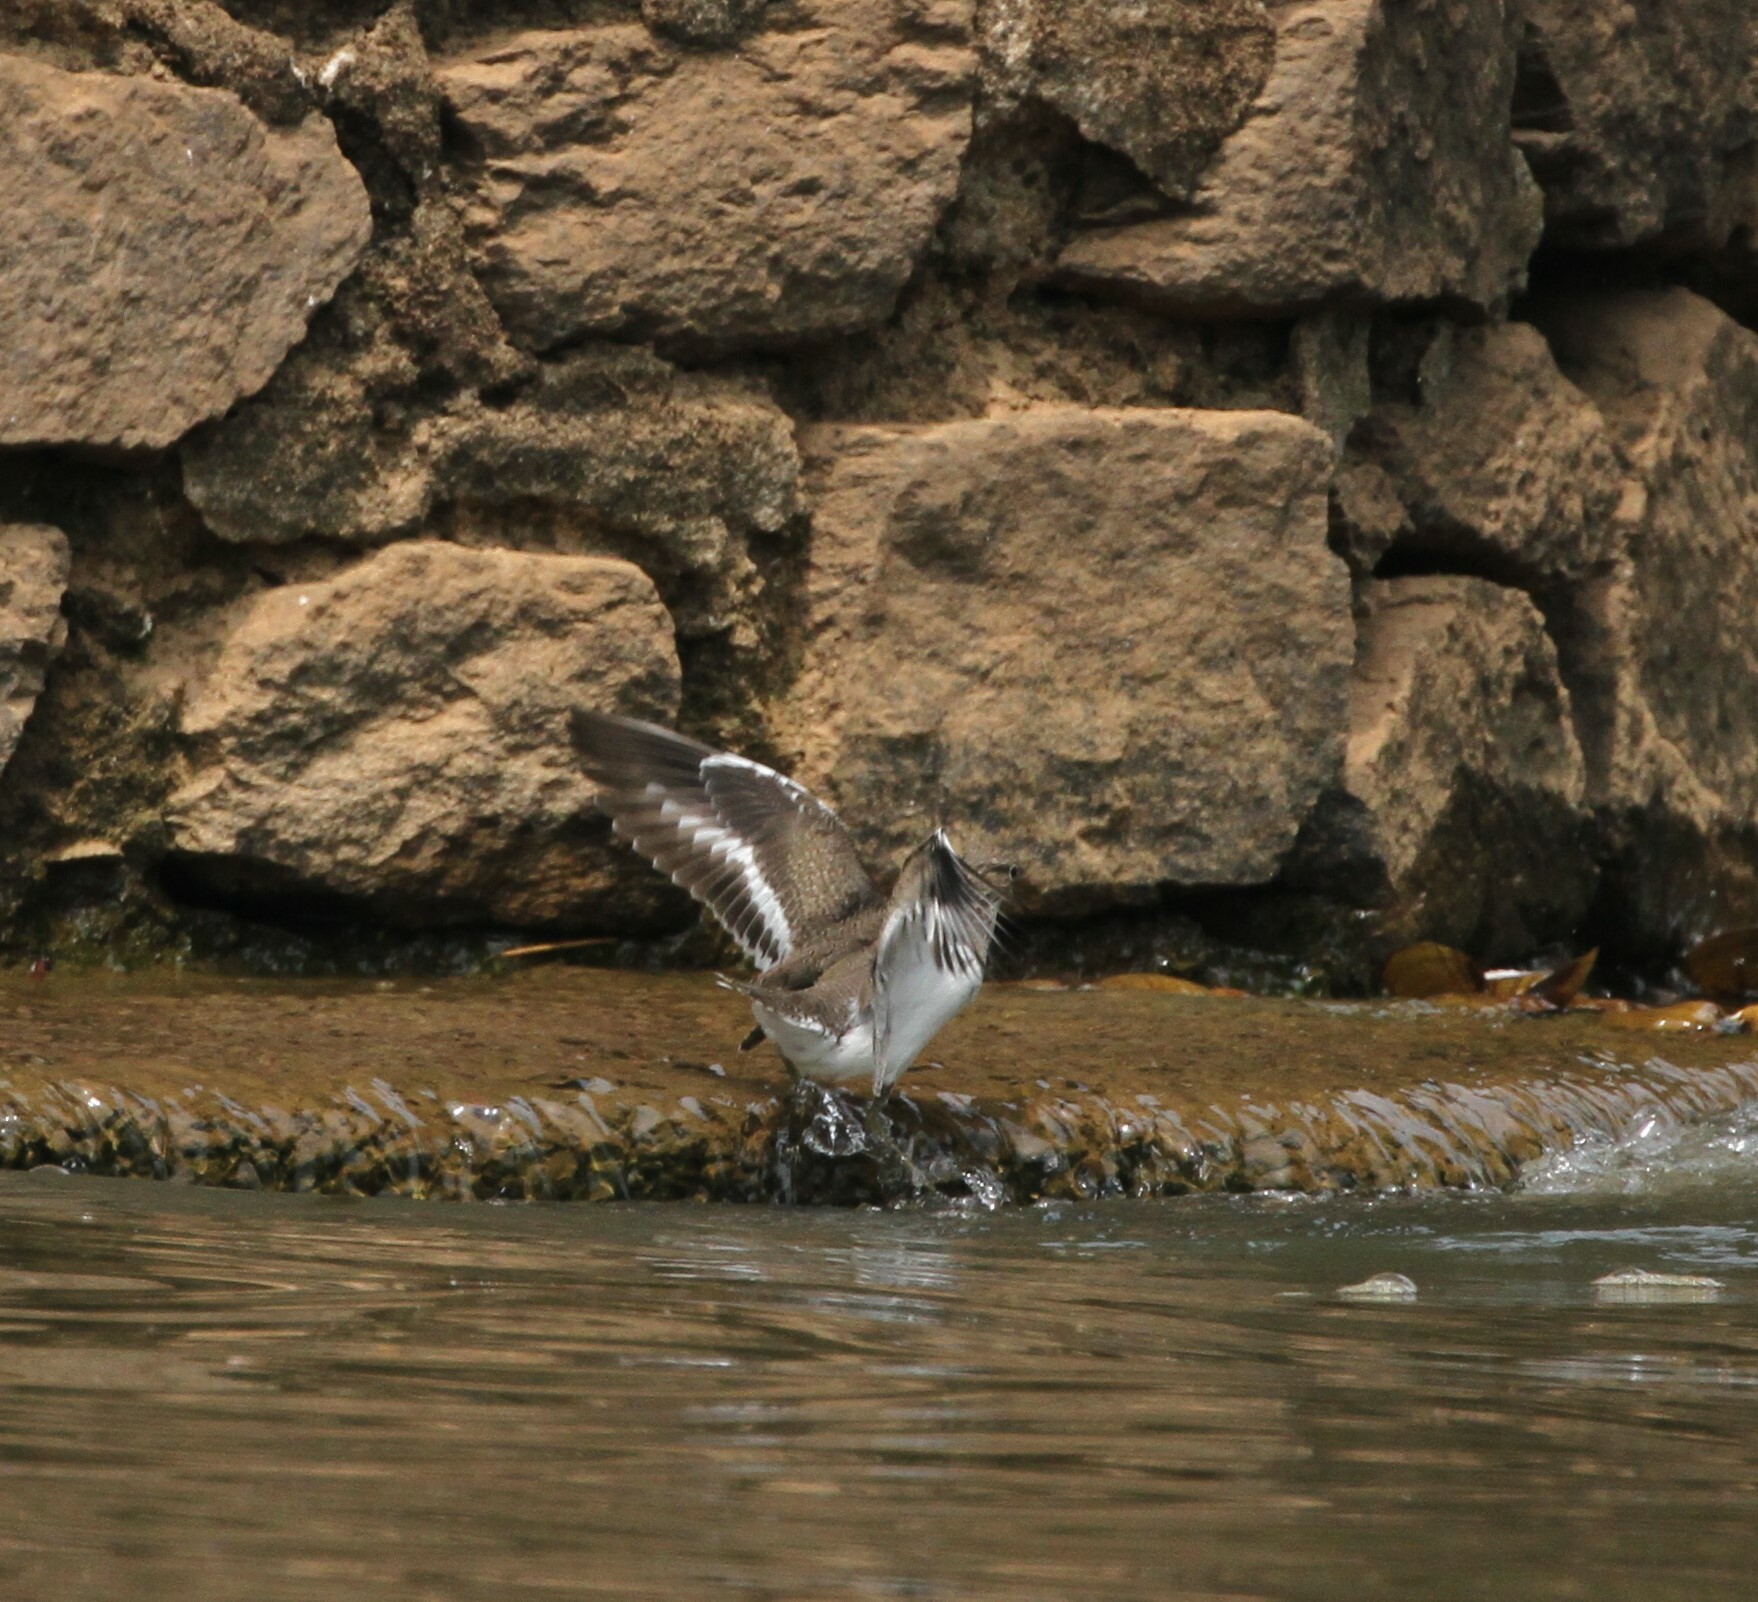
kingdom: Animalia
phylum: Chordata
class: Aves
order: Charadriiformes
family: Scolopacidae
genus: Actitis
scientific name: Actitis hypoleucos
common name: Common sandpiper
